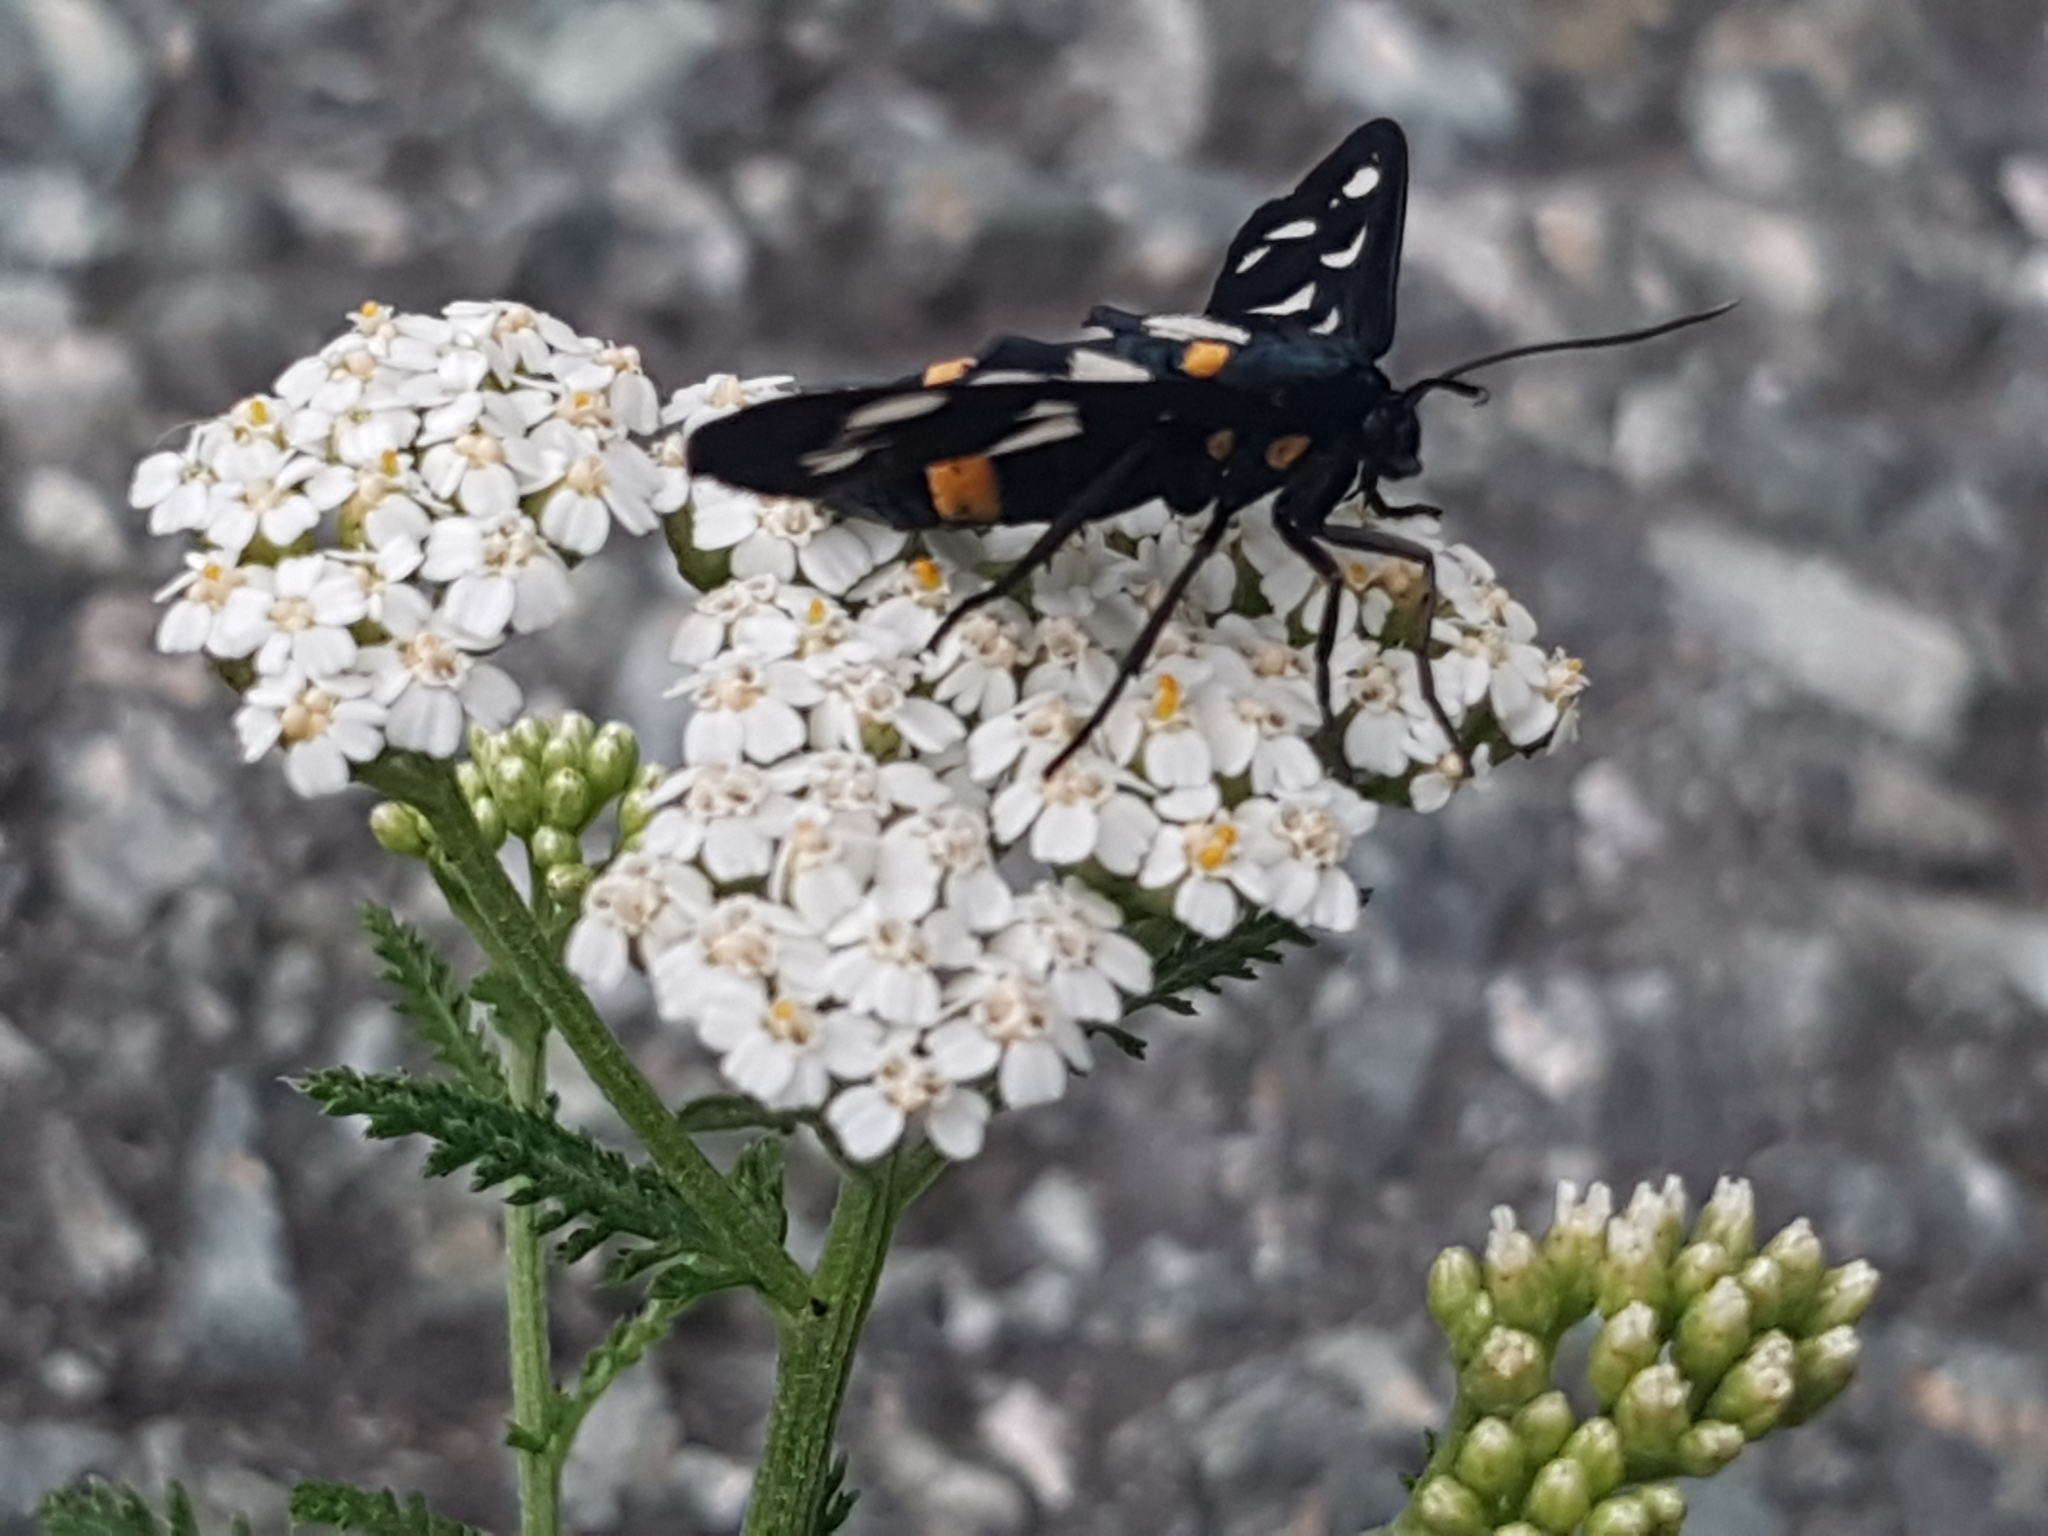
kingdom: Animalia
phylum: Arthropoda
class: Insecta
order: Lepidoptera
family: Erebidae
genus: Amata
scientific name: Amata phegea
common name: Nine-spotted
